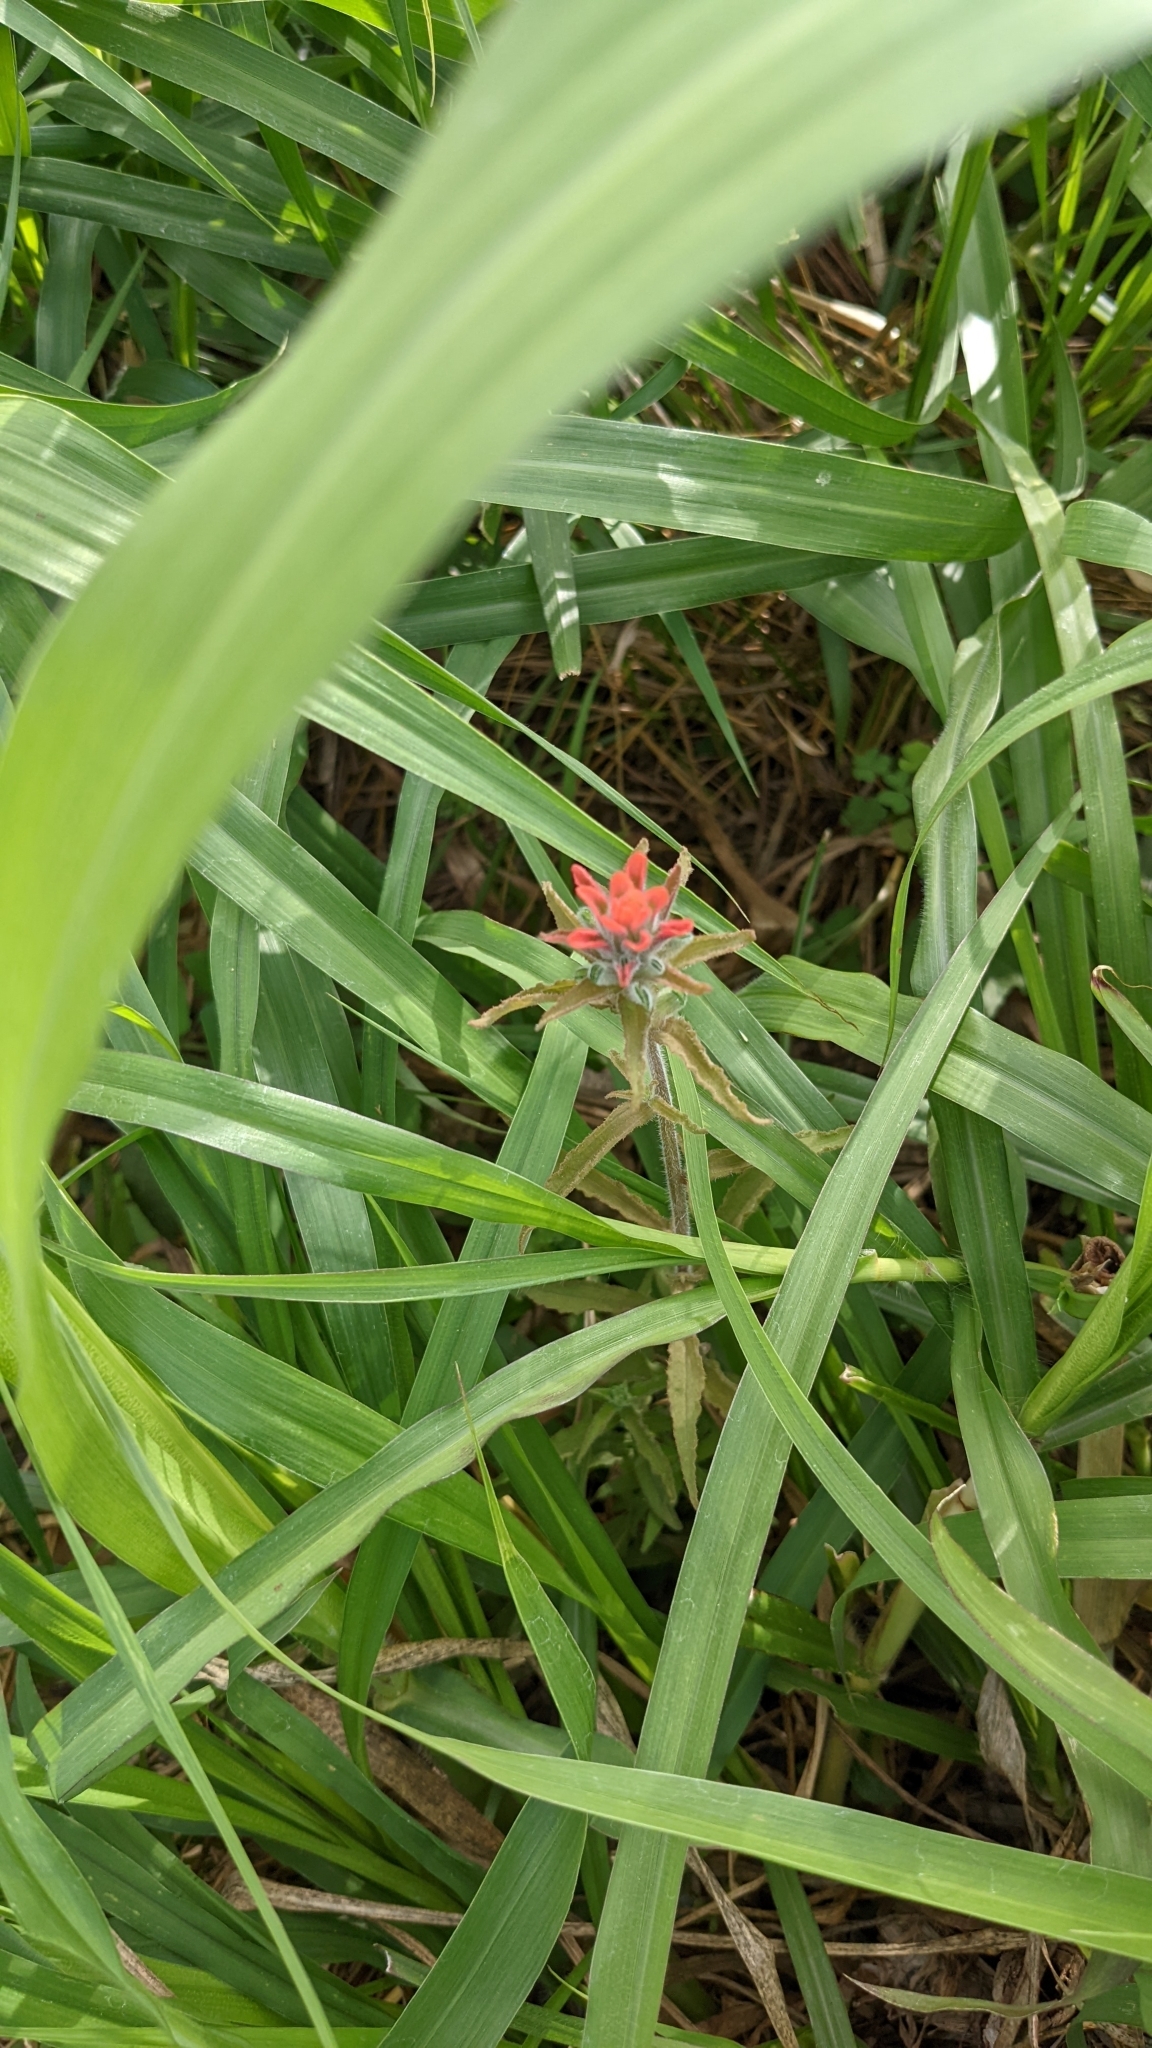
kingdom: Plantae
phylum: Tracheophyta
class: Magnoliopsida
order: Lamiales
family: Orobanchaceae
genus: Castilleja
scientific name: Castilleja arvensis
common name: Indian paintbrush
